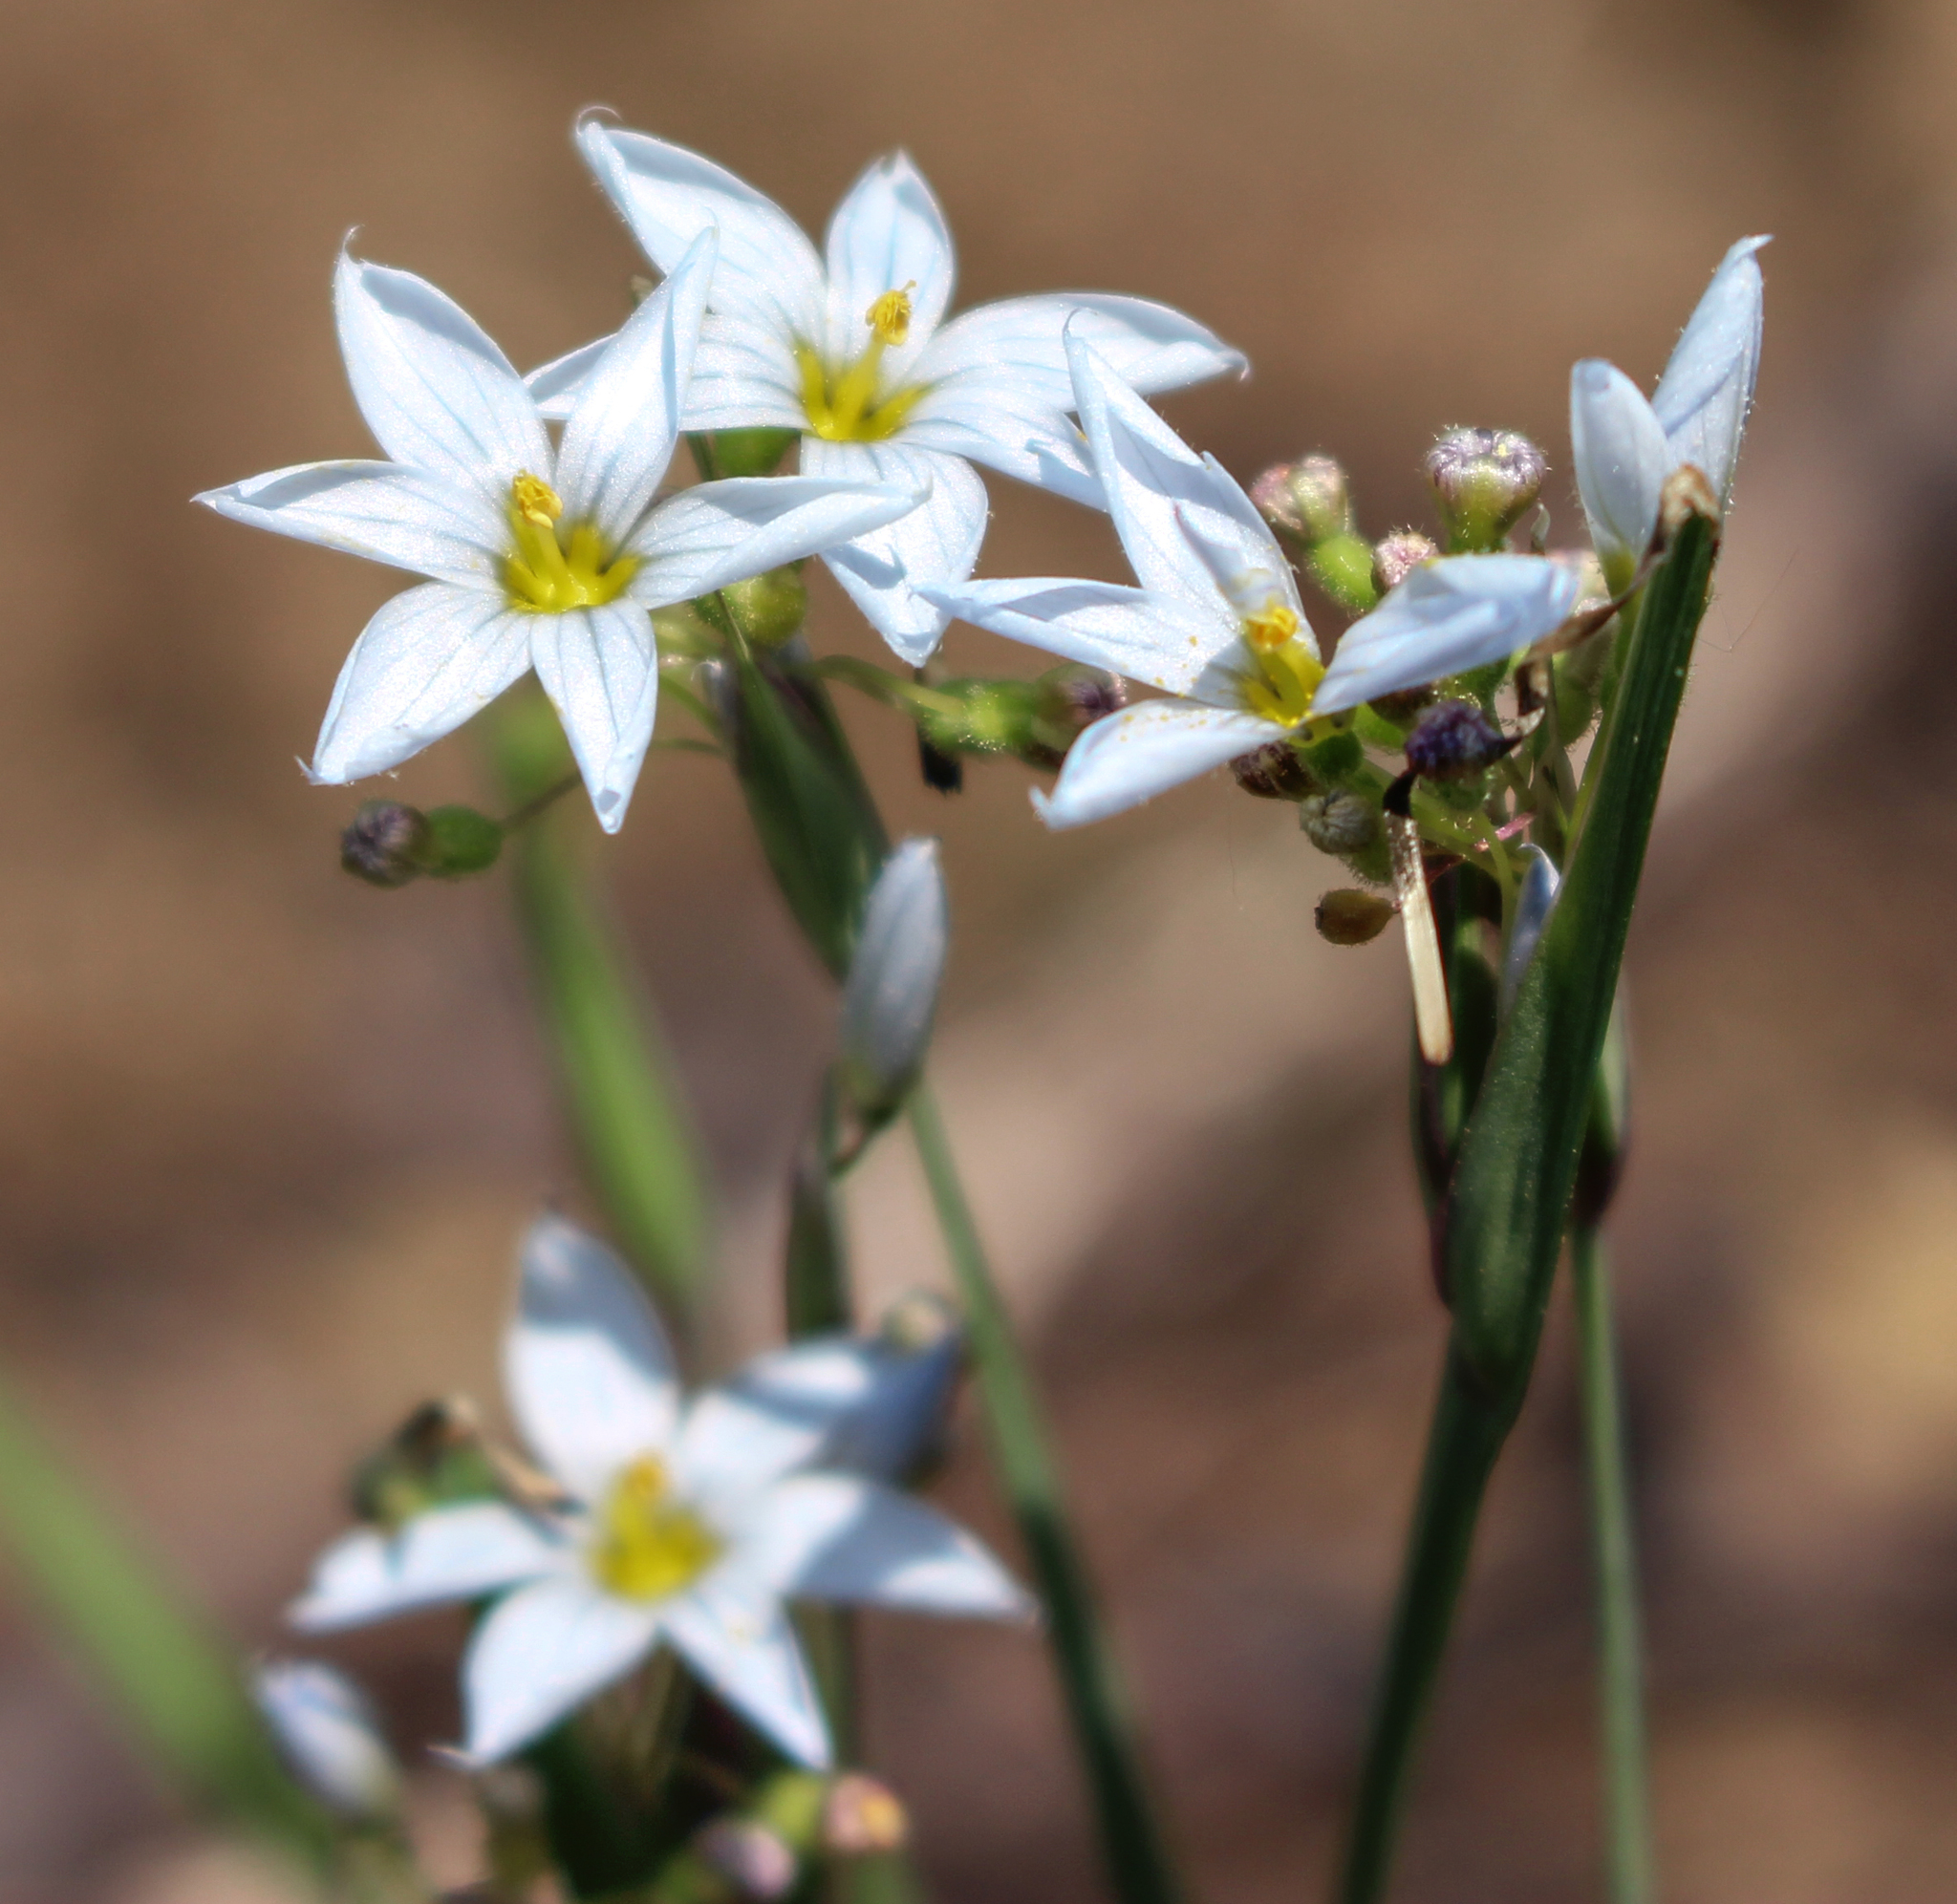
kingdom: Plantae
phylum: Tracheophyta
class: Liliopsida
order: Asparagales
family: Iridaceae
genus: Sisyrinchium
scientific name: Sisyrinchium campestre
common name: Prairie blue-eyed-grass
